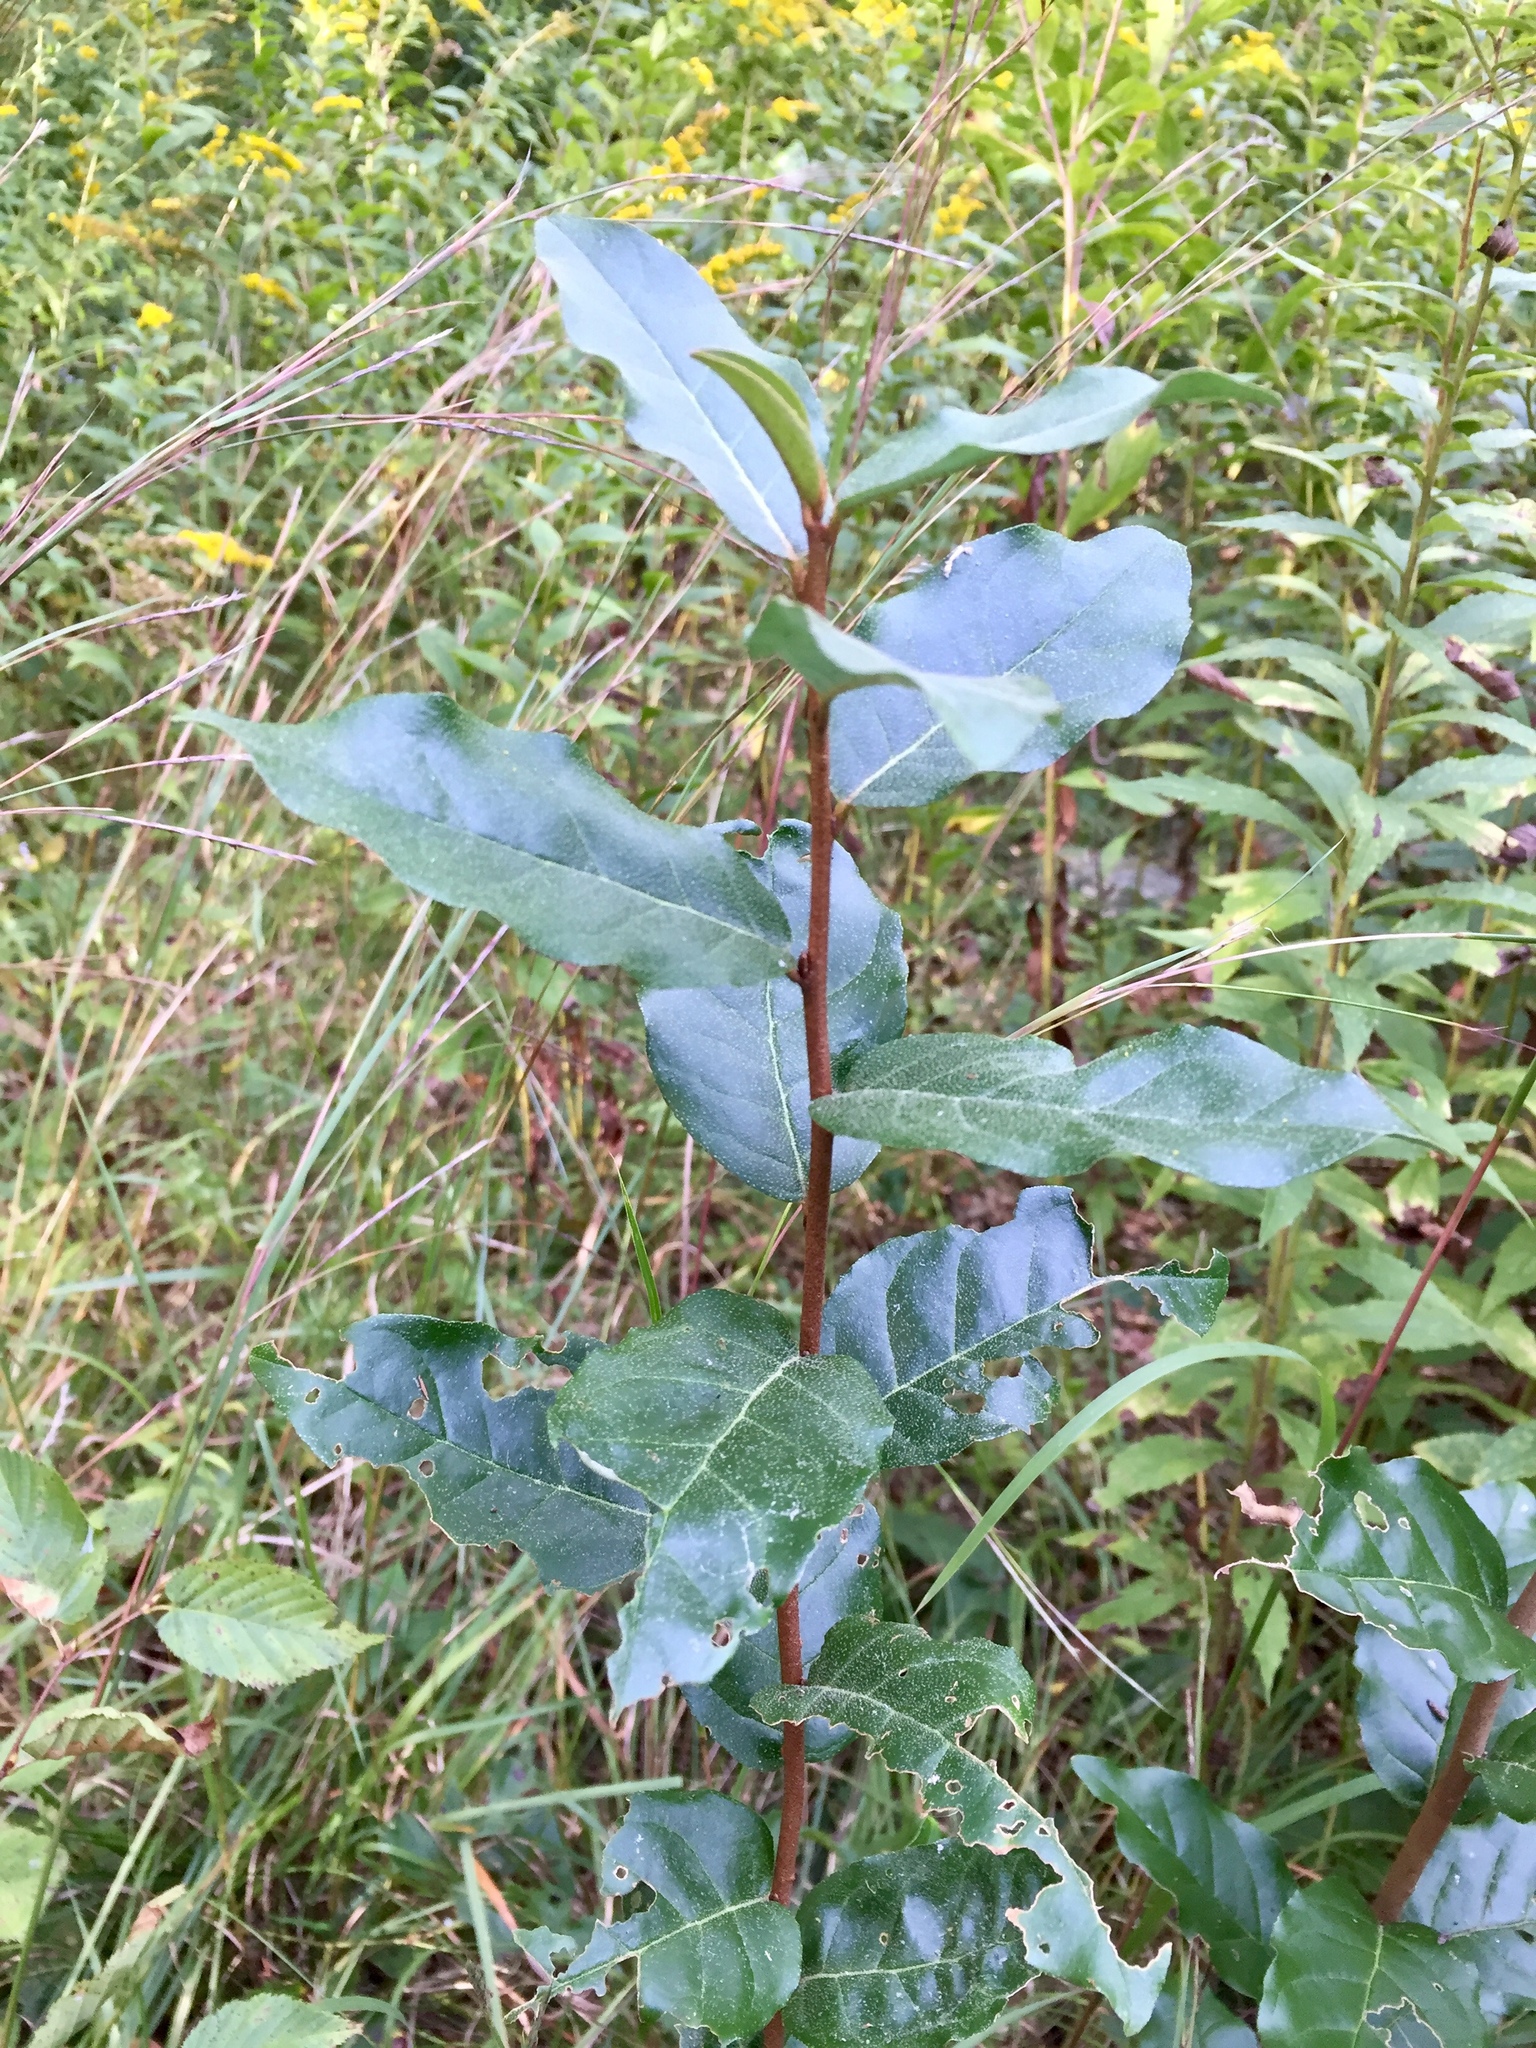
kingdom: Plantae
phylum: Tracheophyta
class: Magnoliopsida
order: Rosales
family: Elaeagnaceae
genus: Elaeagnus
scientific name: Elaeagnus umbellata
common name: Autumn olive
